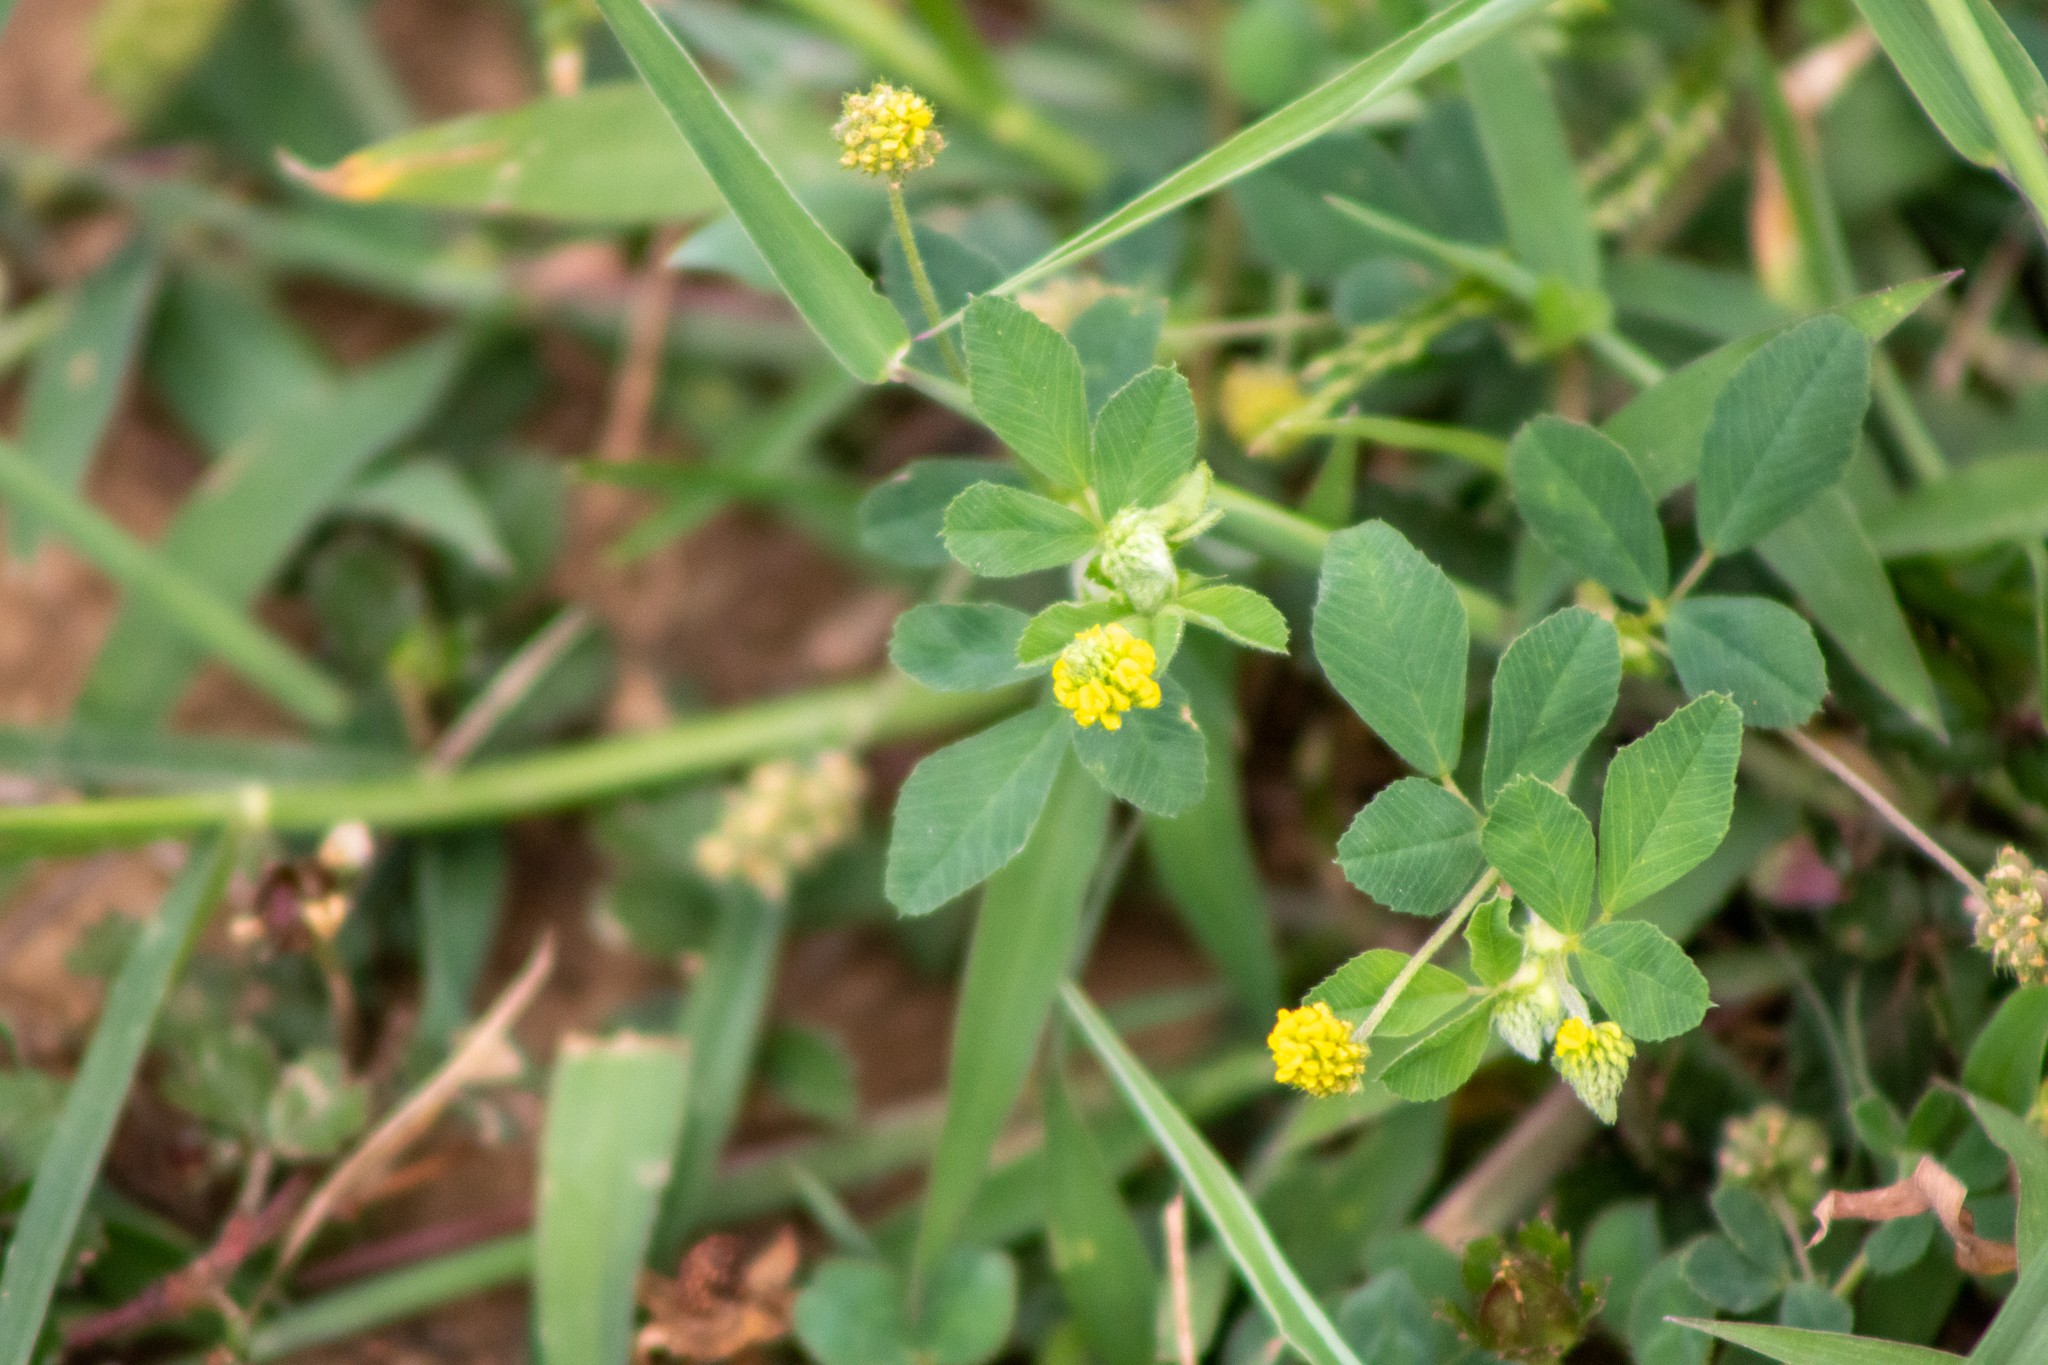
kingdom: Plantae
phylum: Tracheophyta
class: Magnoliopsida
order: Fabales
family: Fabaceae
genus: Medicago
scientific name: Medicago lupulina
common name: Black medick
